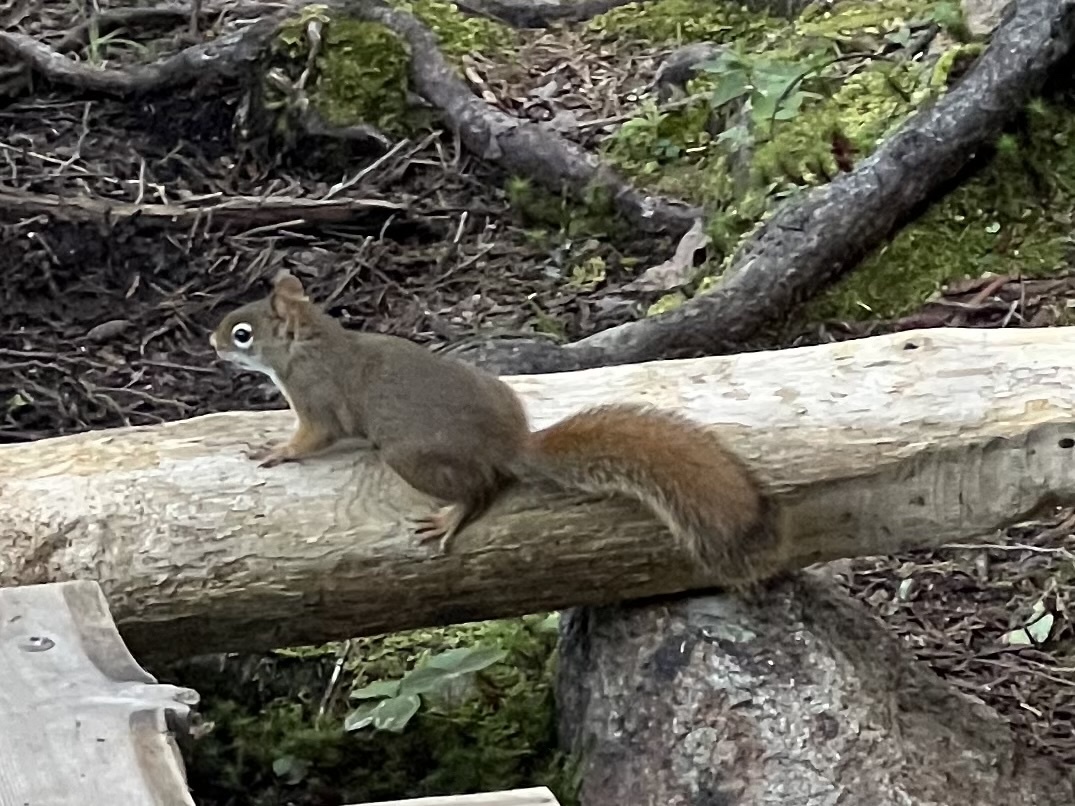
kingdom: Animalia
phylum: Chordata
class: Mammalia
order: Rodentia
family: Sciuridae
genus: Tamiasciurus
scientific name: Tamiasciurus hudsonicus
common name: Red squirrel
